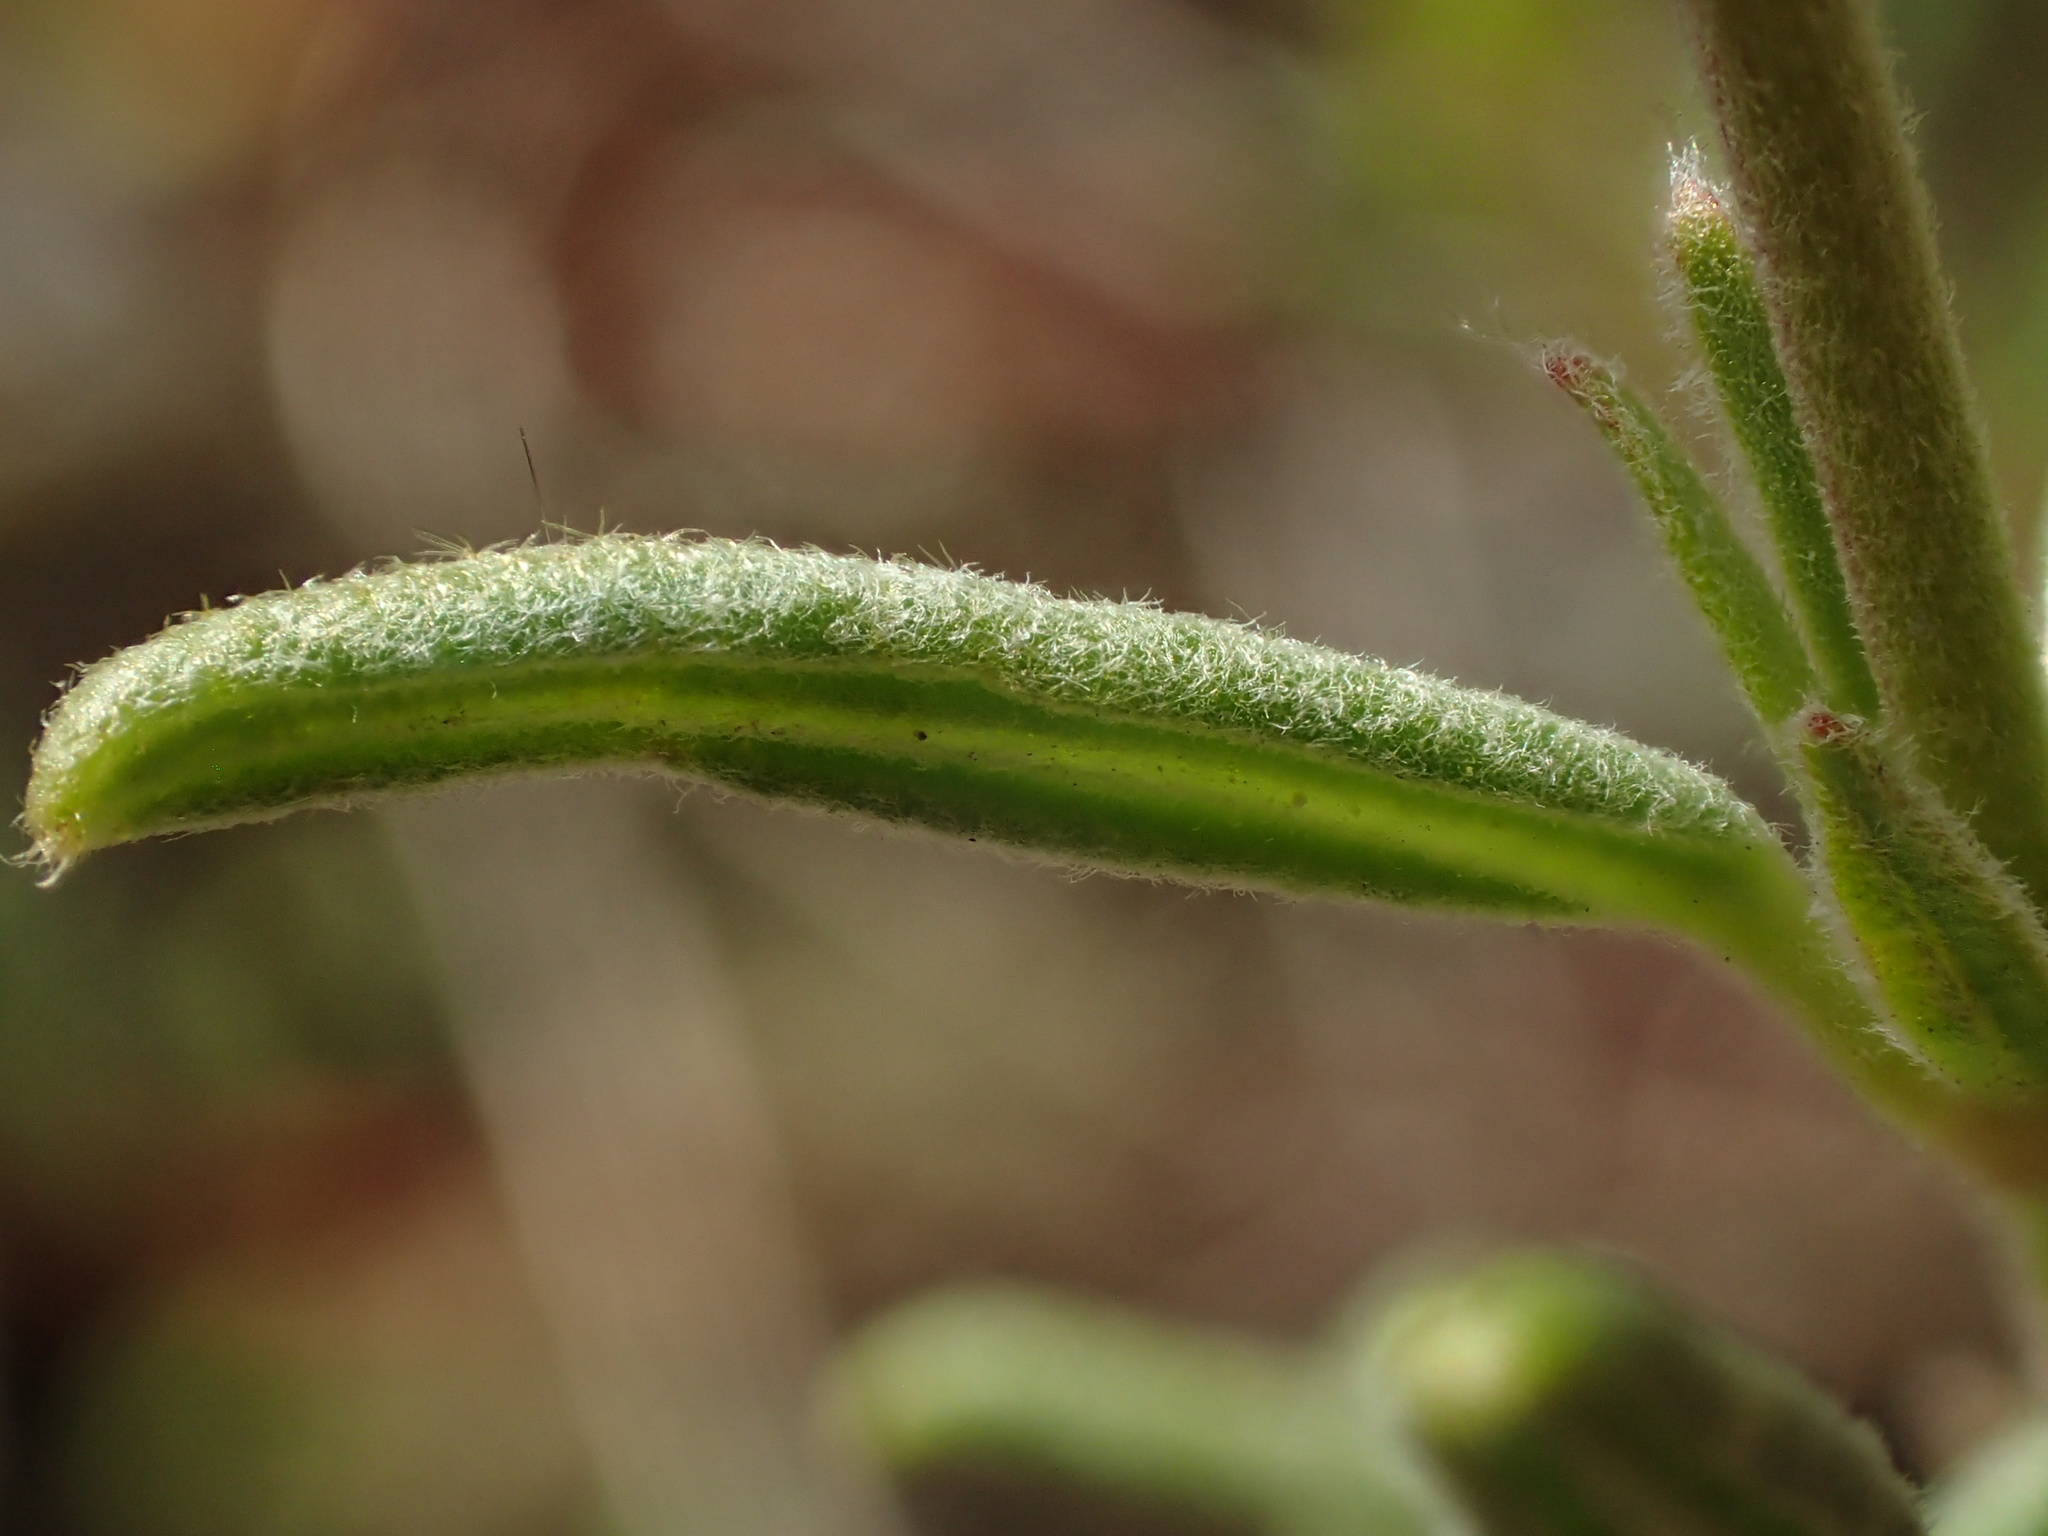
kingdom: Plantae
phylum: Tracheophyta
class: Magnoliopsida
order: Malvales
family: Cistaceae
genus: Helianthemum
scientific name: Helianthemum apenninum
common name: White rock-rose
